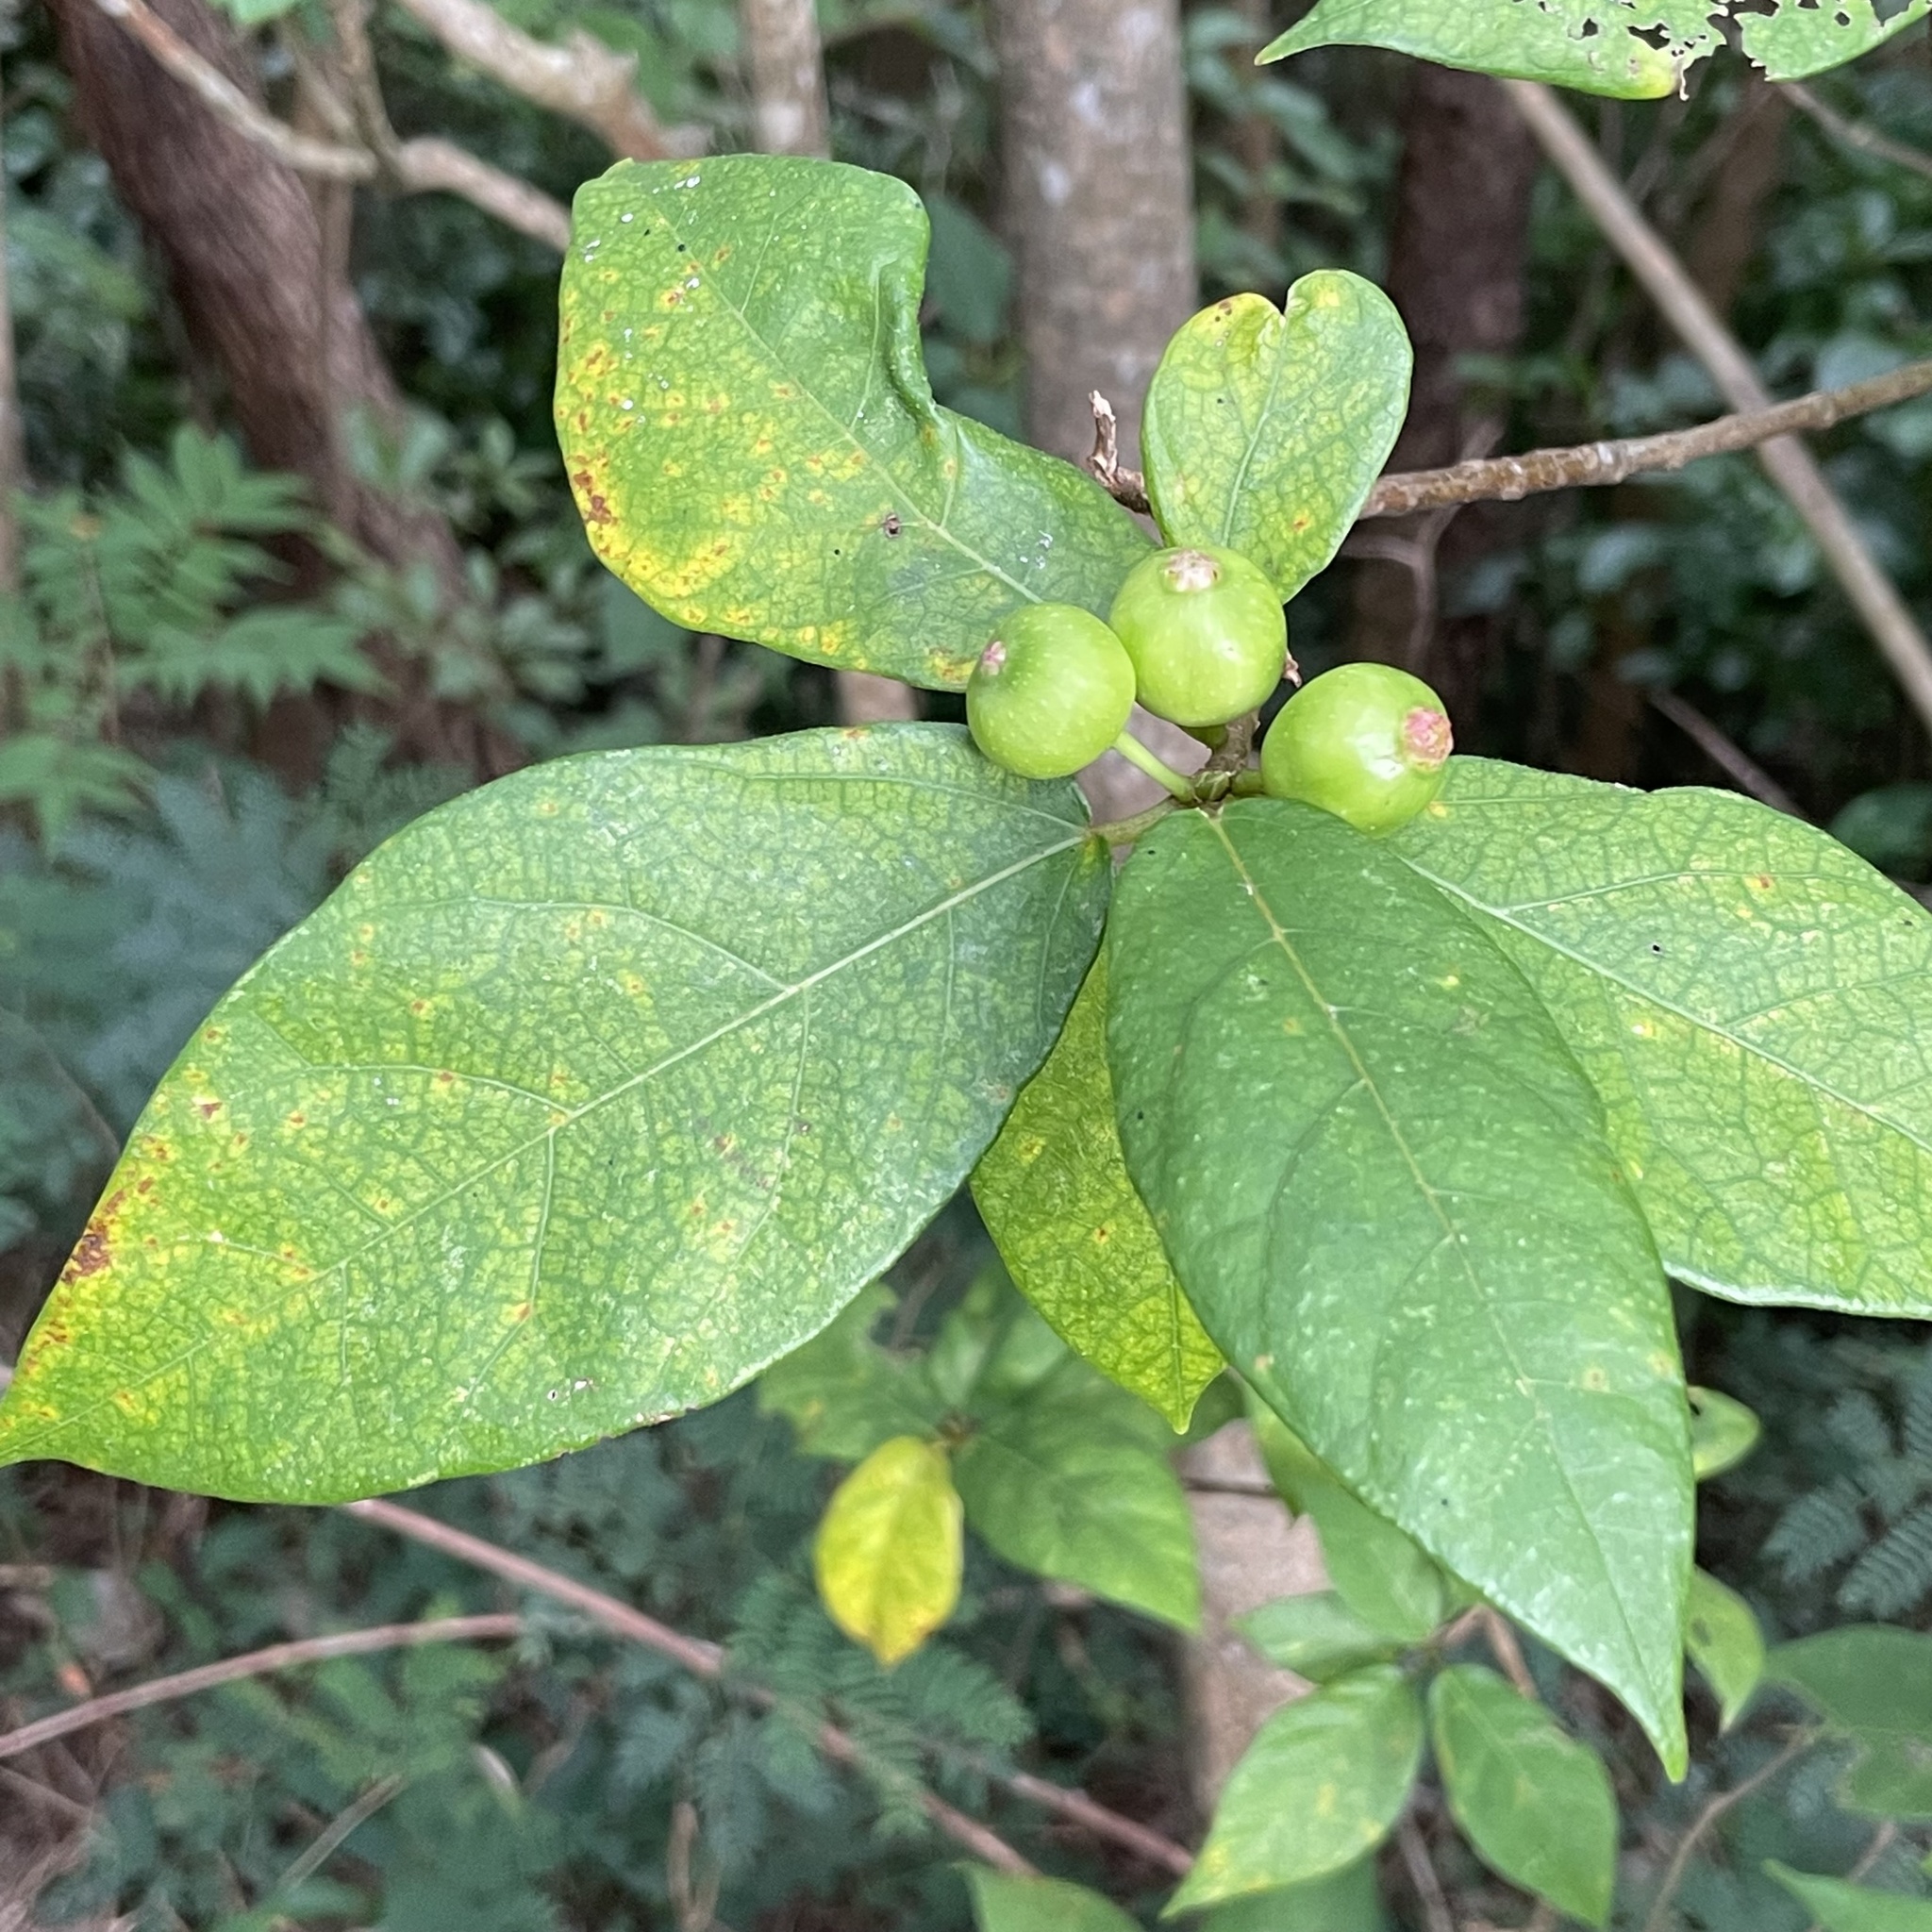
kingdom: Plantae
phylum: Tracheophyta
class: Magnoliopsida
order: Rosales
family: Moraceae
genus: Ficus
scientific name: Ficus erecta
